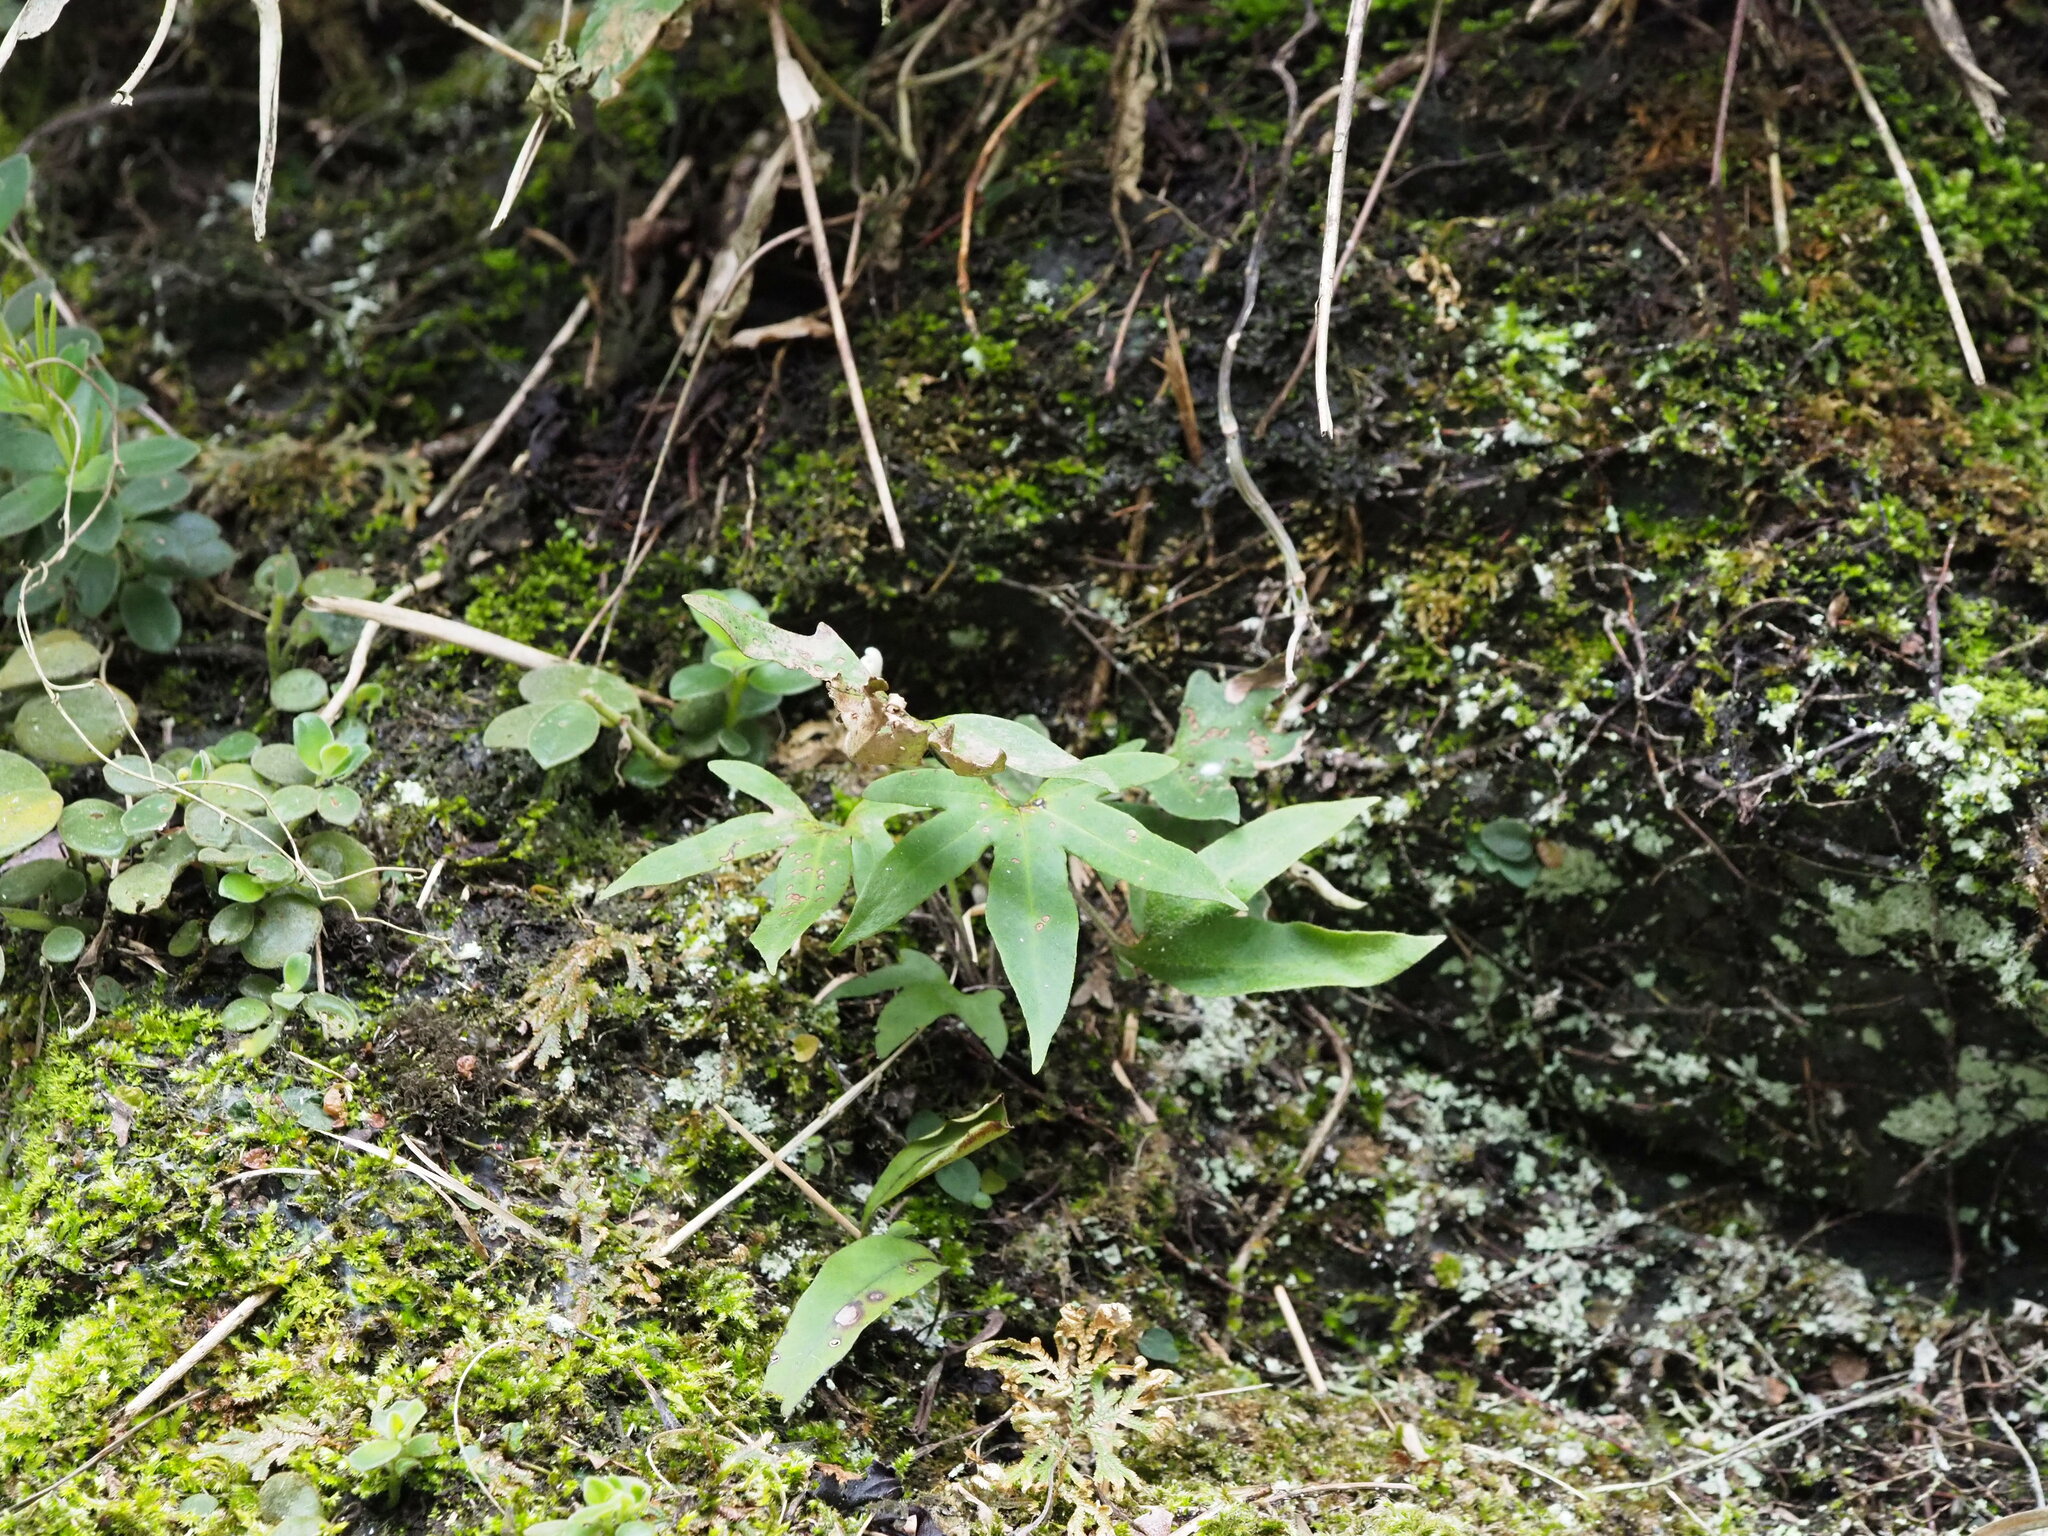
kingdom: Plantae
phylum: Tracheophyta
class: Polypodiopsida
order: Polypodiales
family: Polypodiaceae
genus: Pyrrosia
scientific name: Pyrrosia polydactyla
